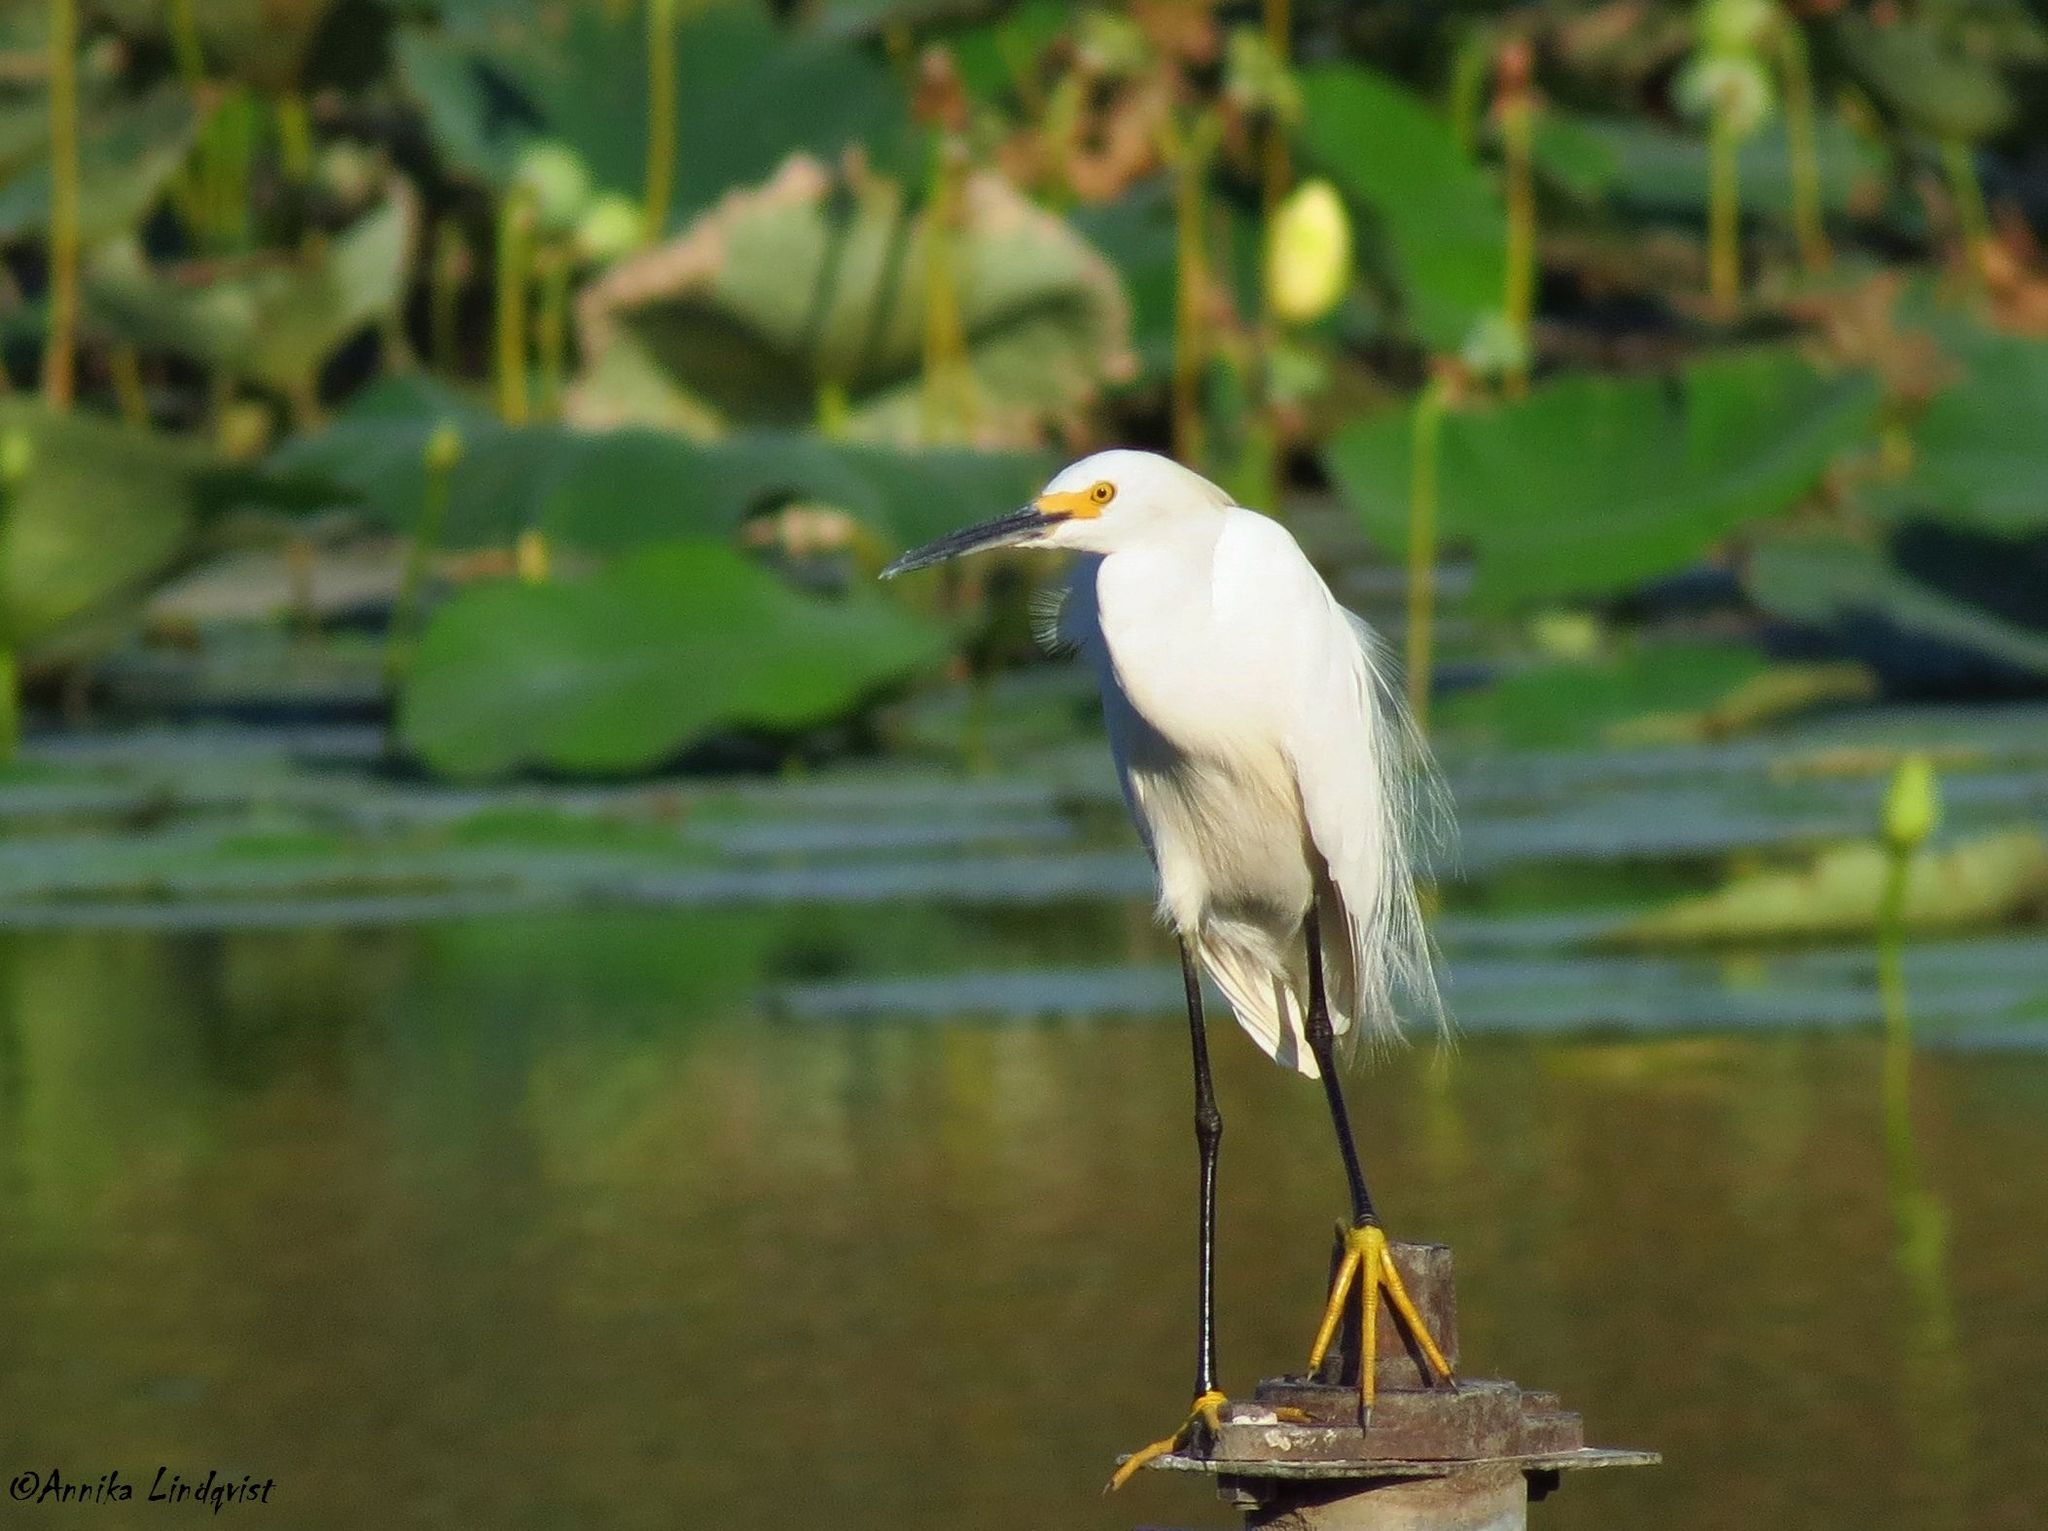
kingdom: Animalia
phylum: Chordata
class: Aves
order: Pelecaniformes
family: Ardeidae
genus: Egretta
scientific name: Egretta thula
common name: Snowy egret
